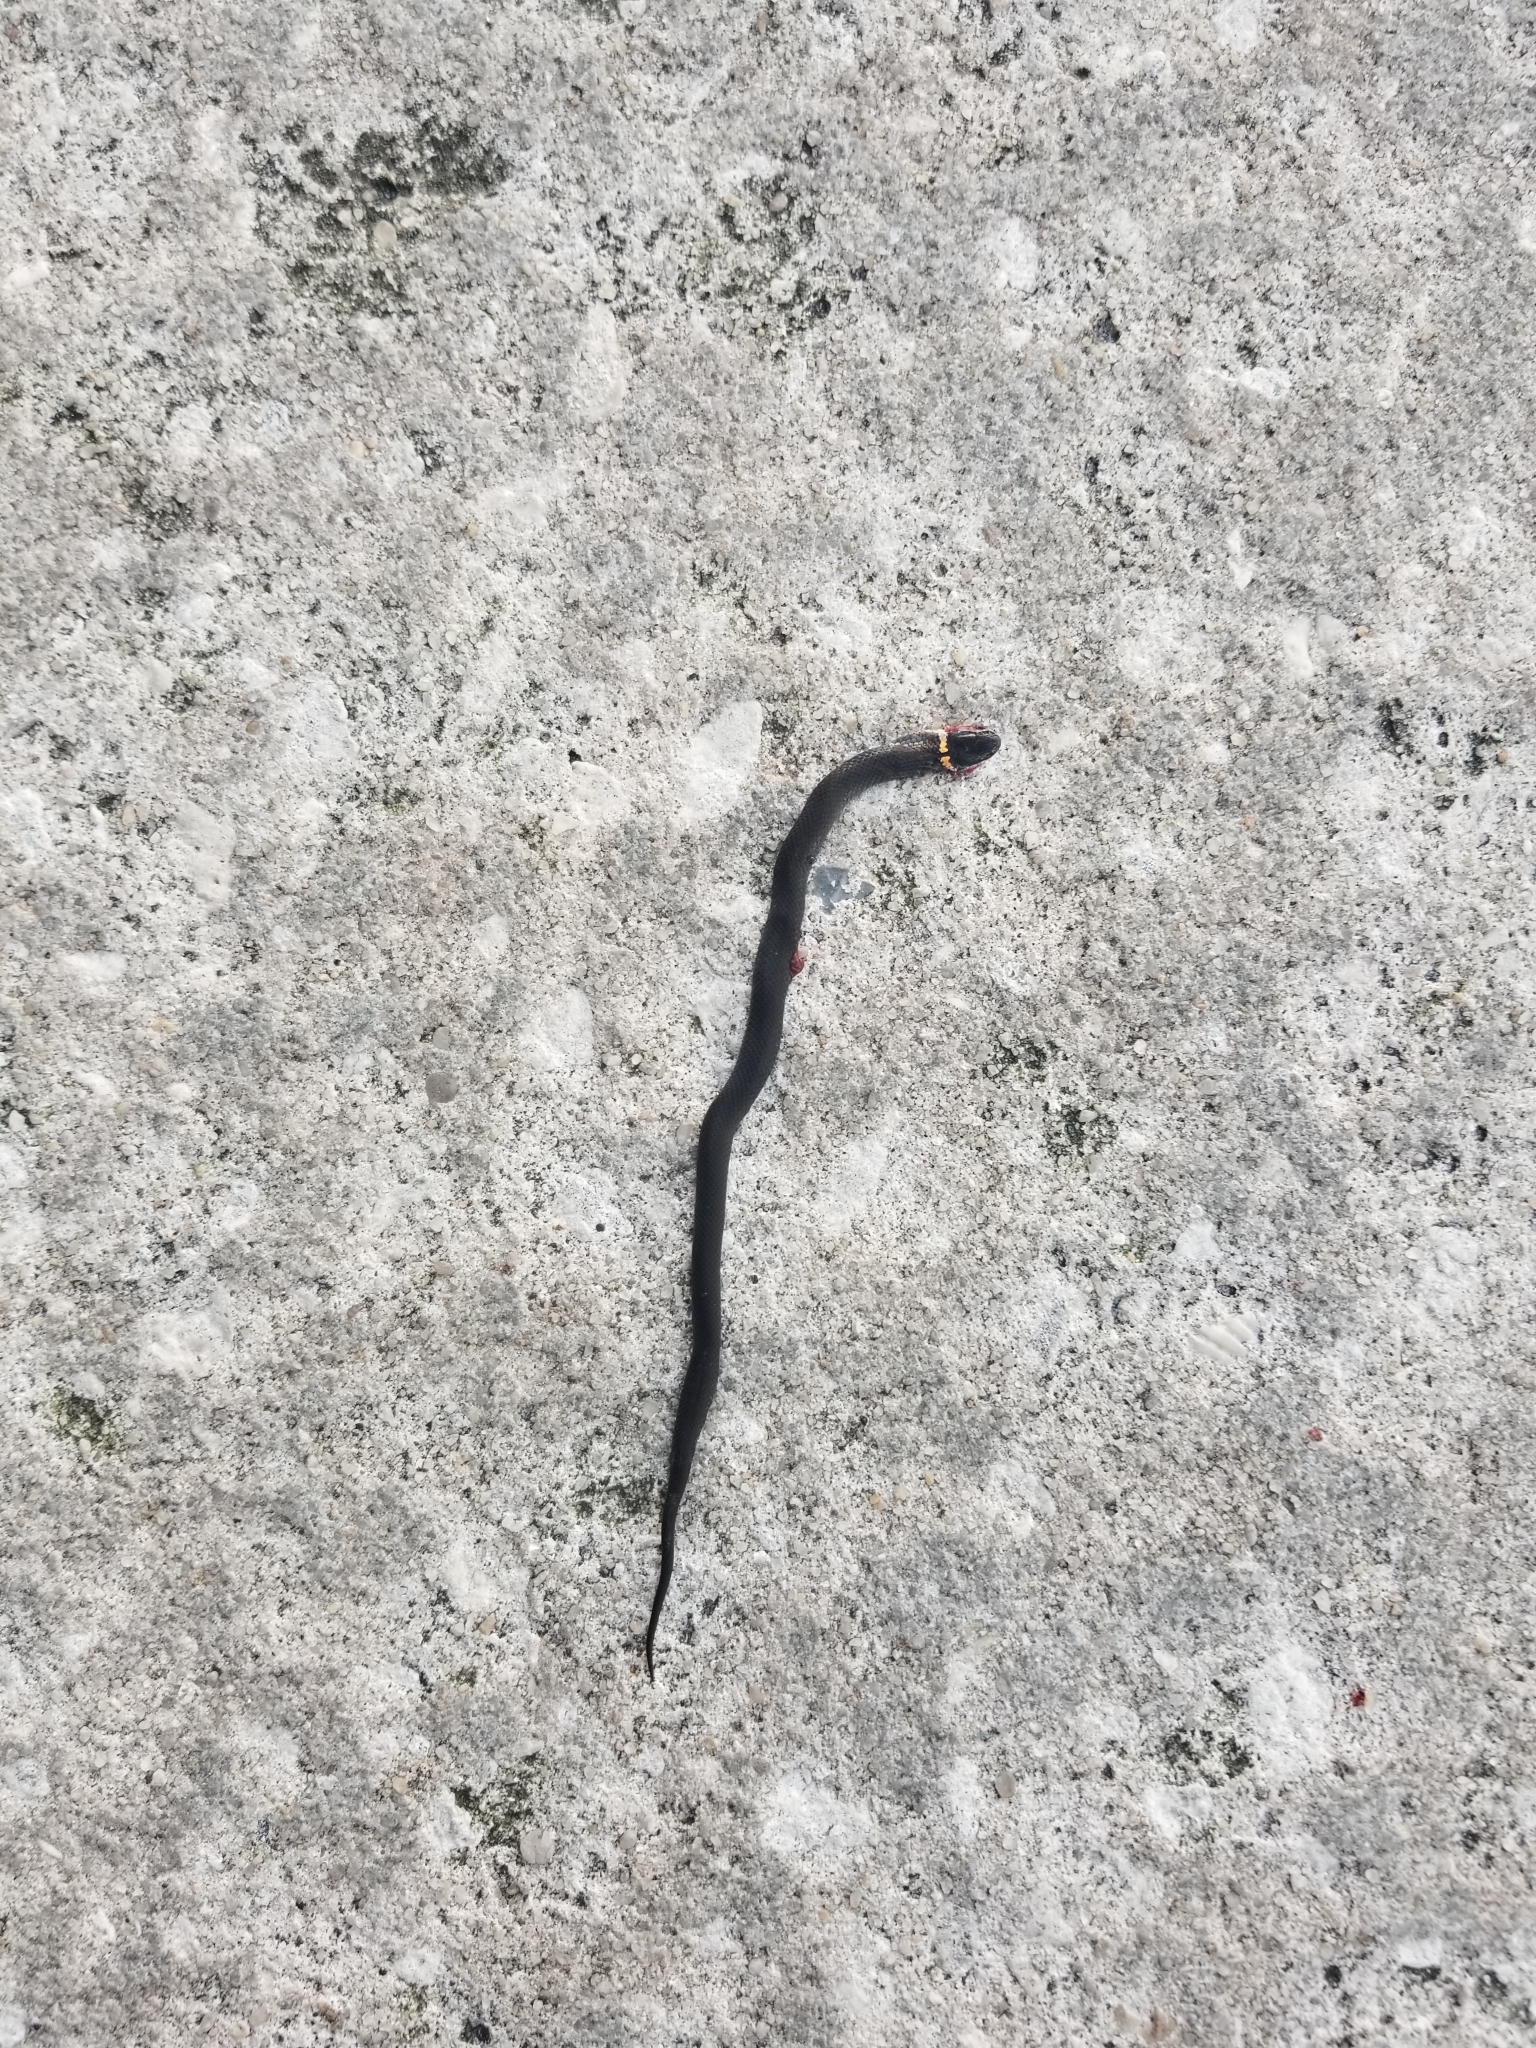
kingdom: Animalia
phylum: Chordata
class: Squamata
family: Colubridae
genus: Diadophis
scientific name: Diadophis punctatus
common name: Ringneck snake
